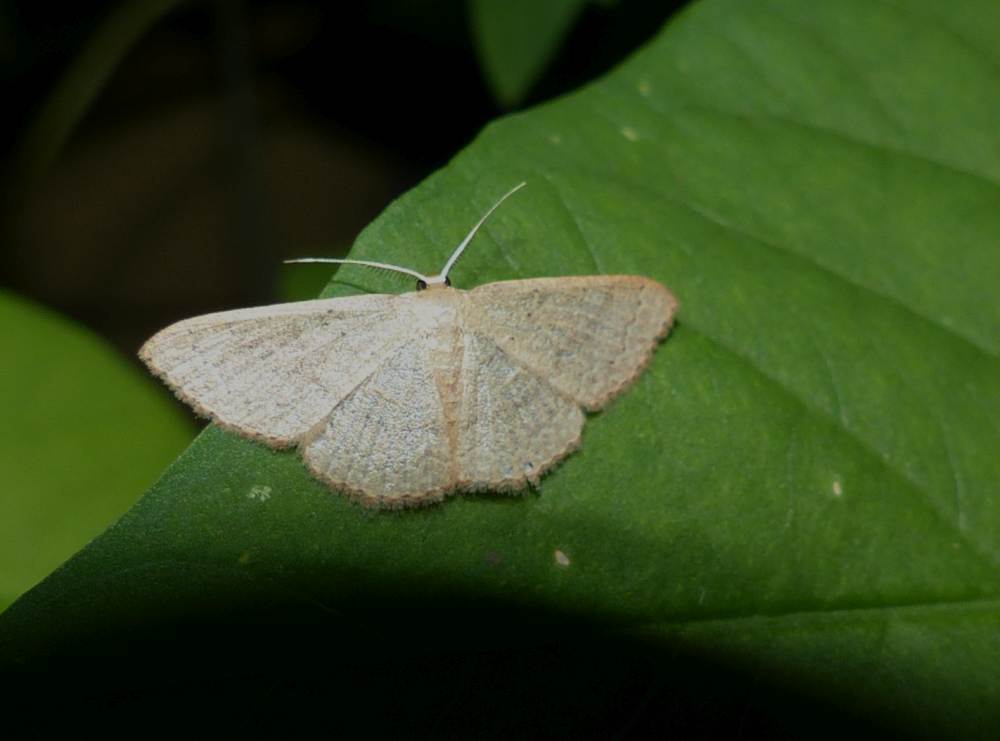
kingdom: Animalia
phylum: Arthropoda
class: Insecta
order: Lepidoptera
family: Geometridae
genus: Pleuroprucha
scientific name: Pleuroprucha insulsaria
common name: Common tan wave
